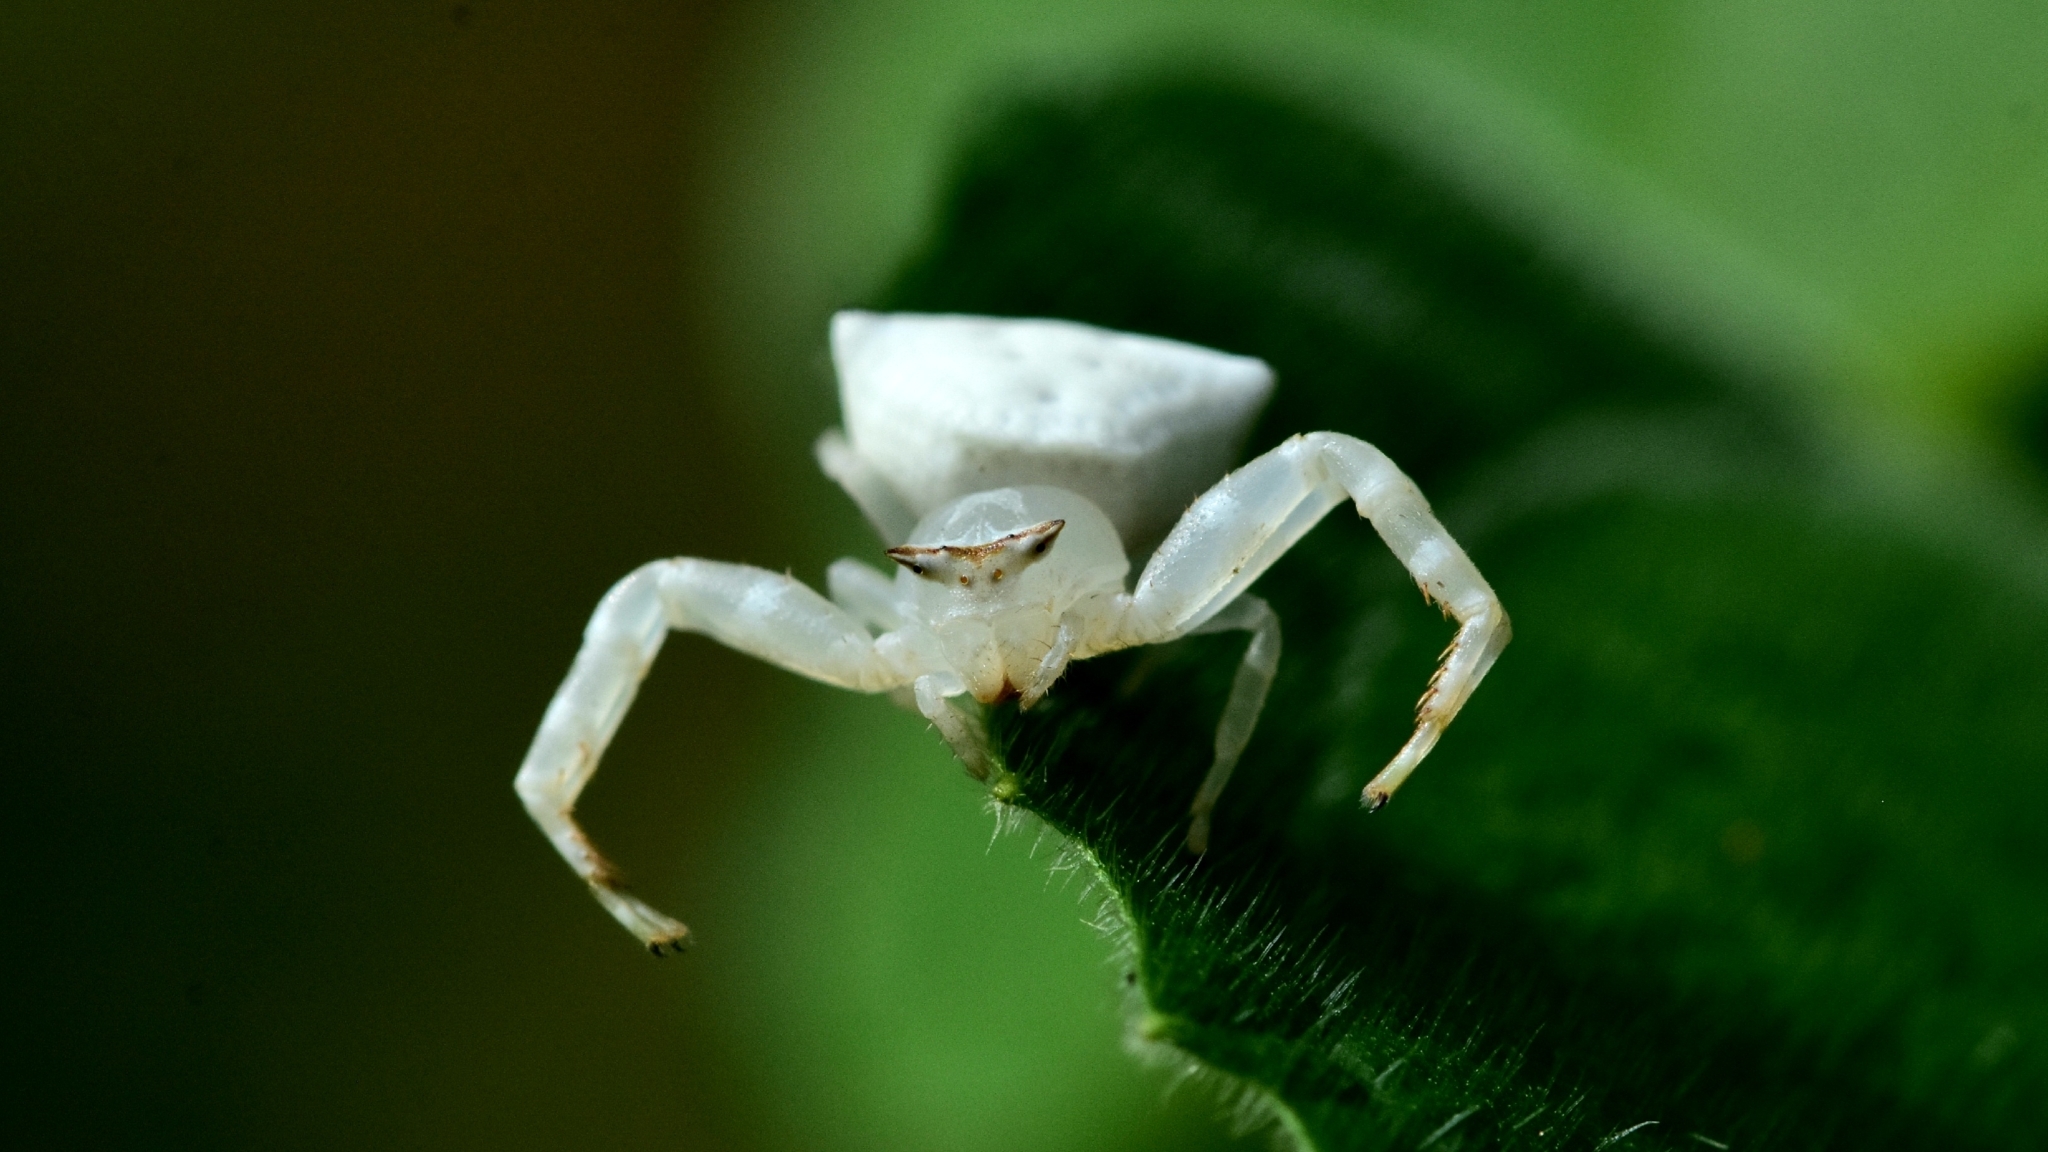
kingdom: Animalia
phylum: Arthropoda
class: Arachnida
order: Araneae
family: Thomisidae
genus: Thomisus
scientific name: Thomisus labefactus
